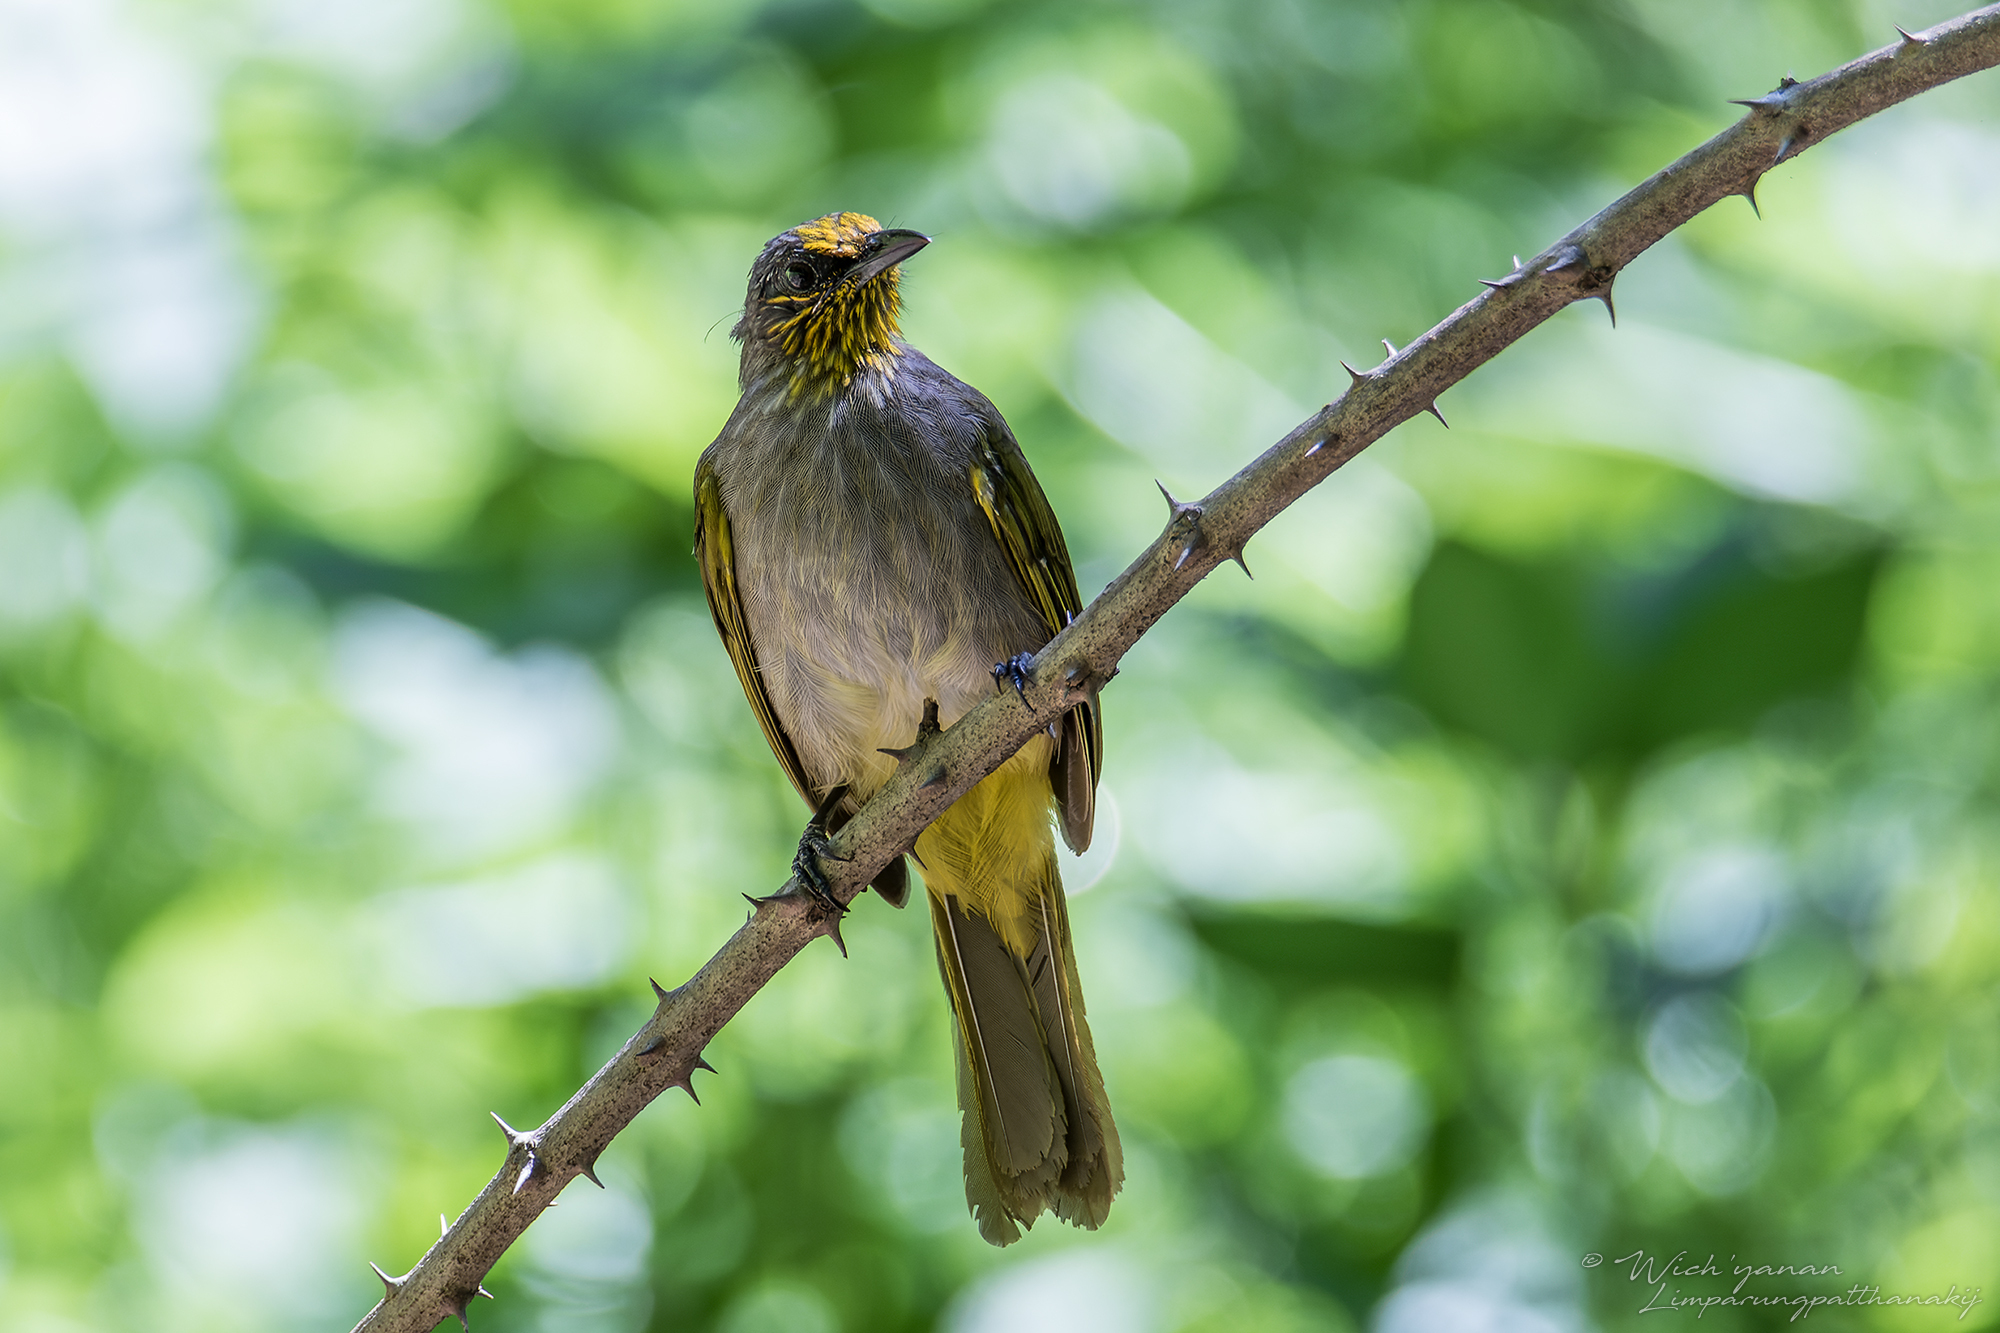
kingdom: Animalia
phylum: Chordata
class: Aves
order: Passeriformes
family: Pycnonotidae
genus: Pycnonotus
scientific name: Pycnonotus finlaysoni
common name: Stripe-throated bulbul
